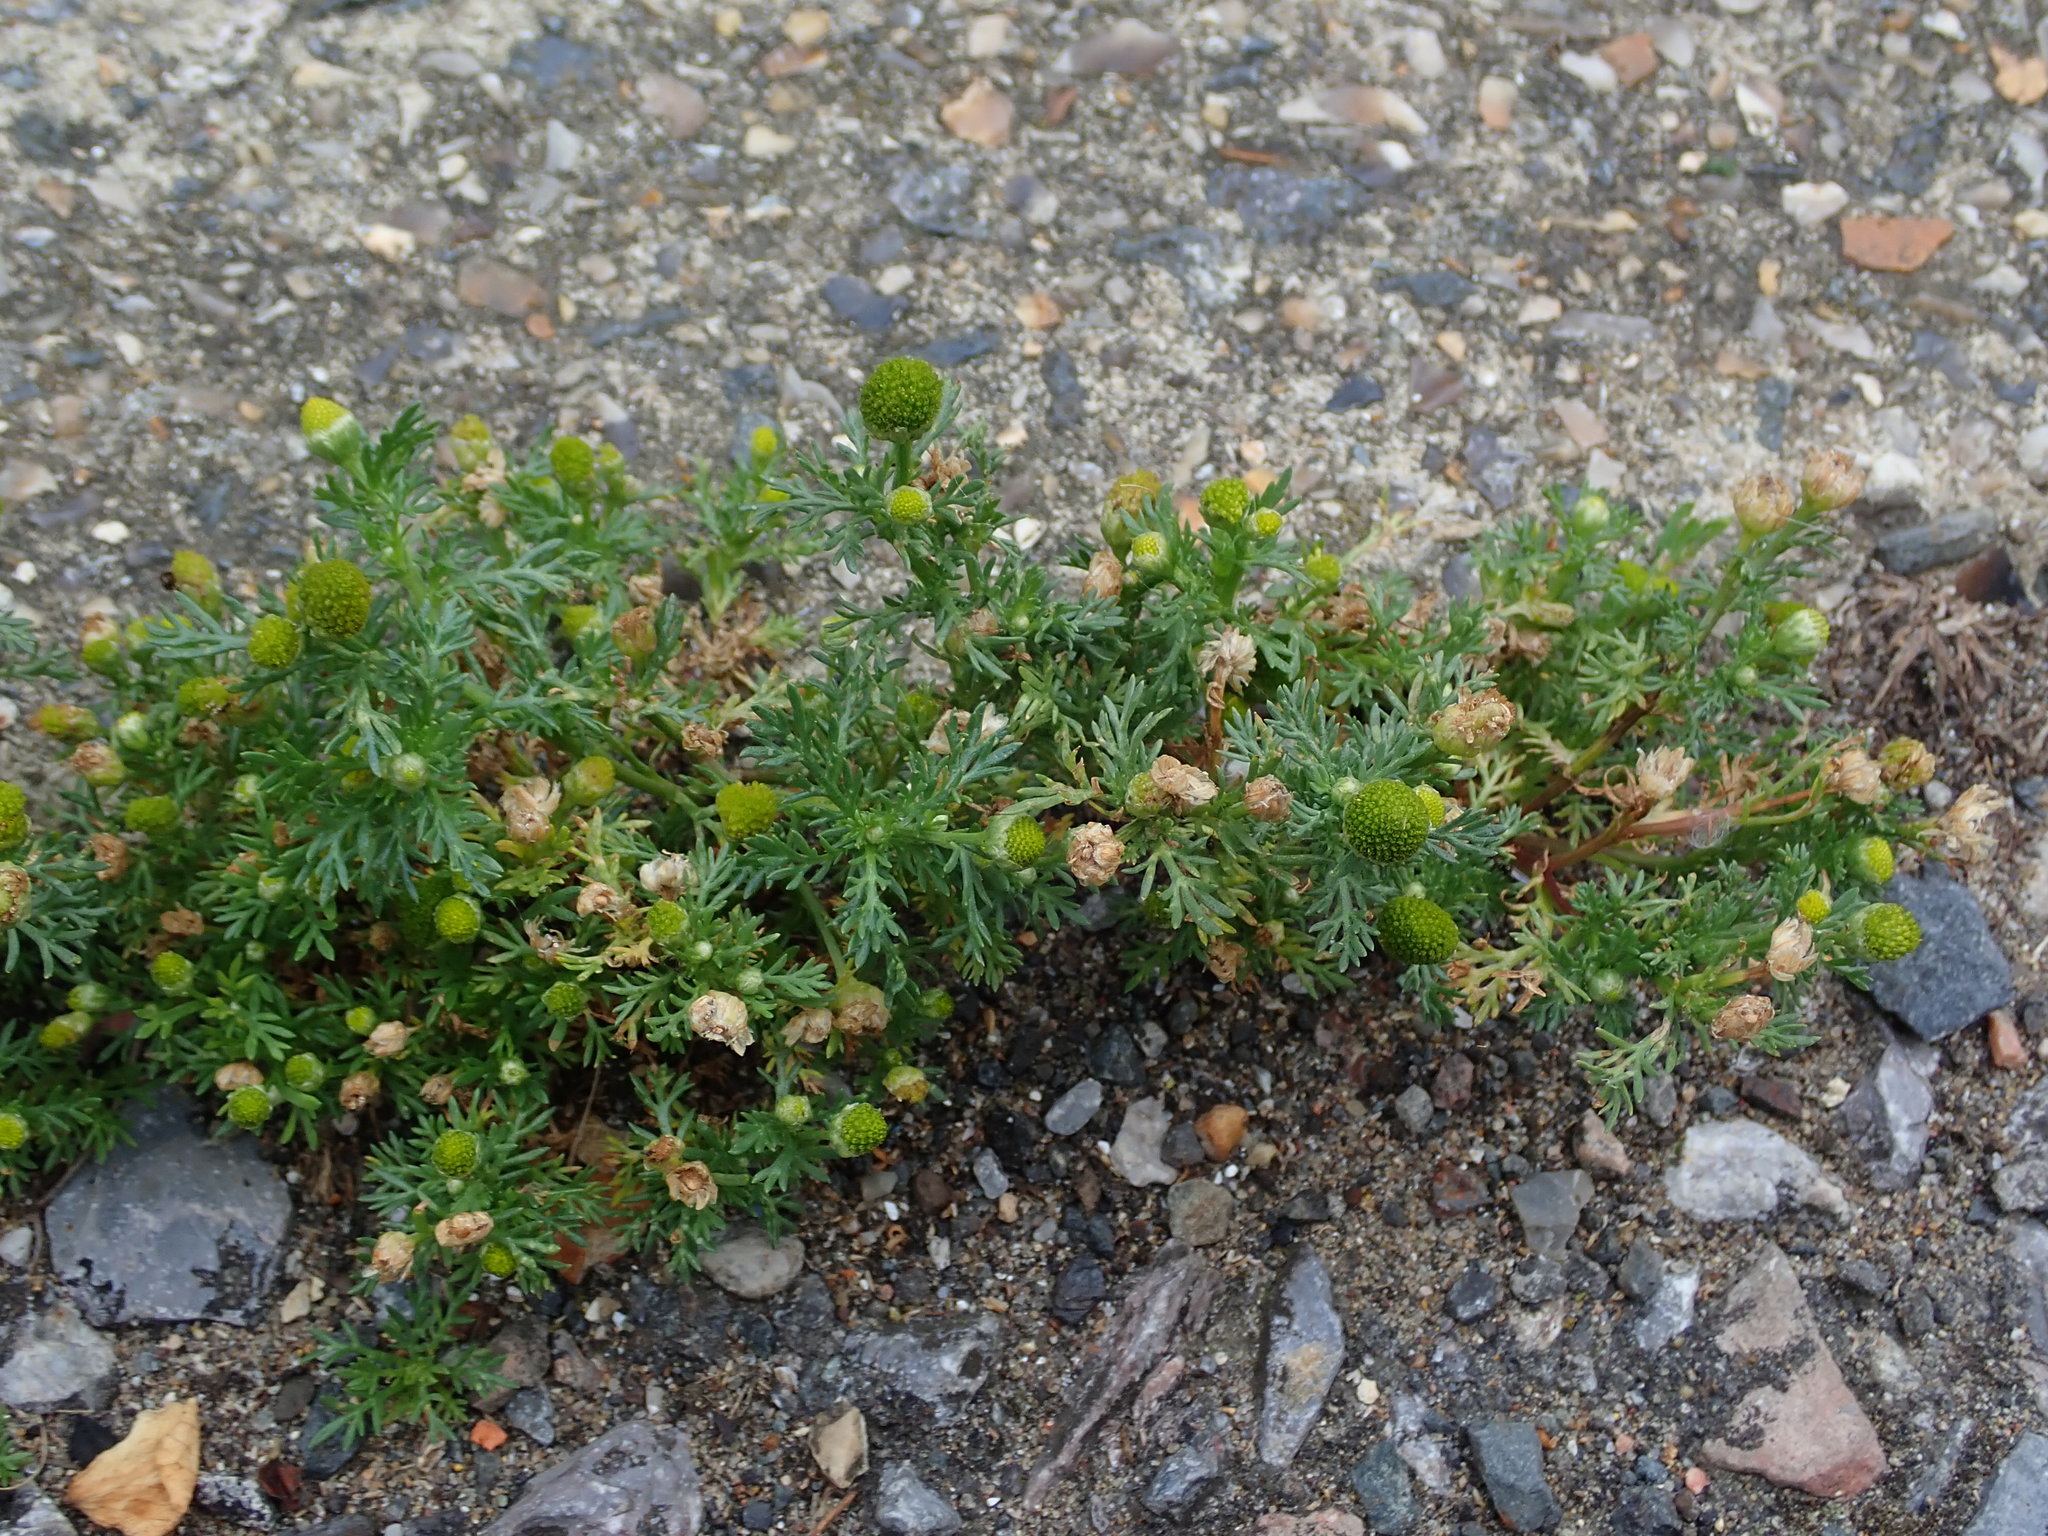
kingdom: Plantae
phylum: Tracheophyta
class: Magnoliopsida
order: Asterales
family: Asteraceae
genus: Matricaria
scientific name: Matricaria discoidea
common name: Disc mayweed
